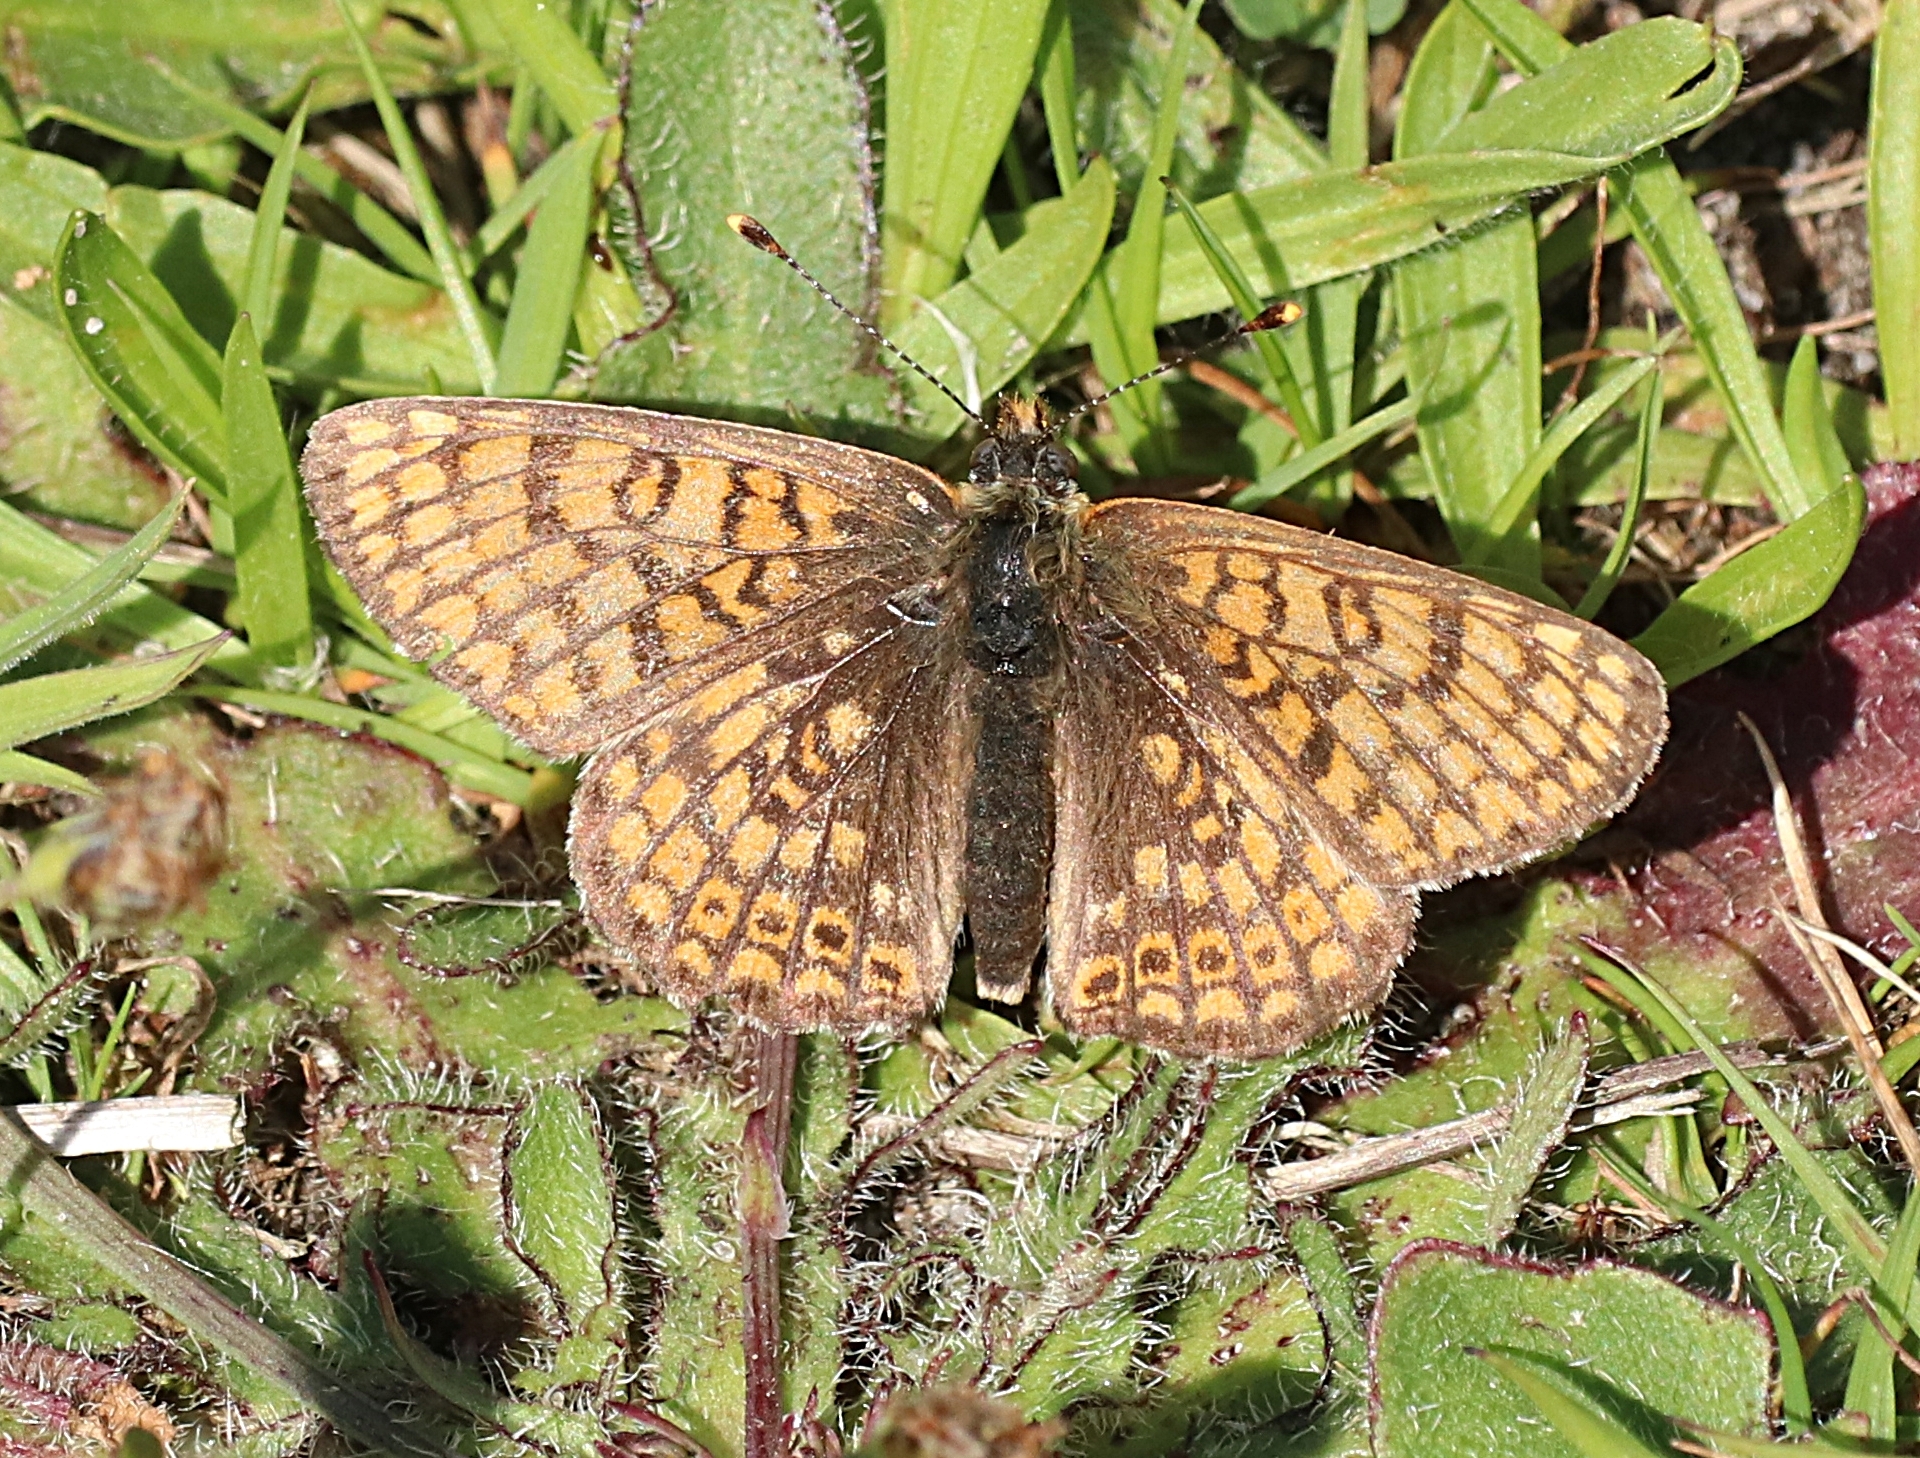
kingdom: Animalia
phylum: Arthropoda
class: Insecta
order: Lepidoptera
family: Nymphalidae
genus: Melitaea
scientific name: Melitaea cinxia
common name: Glanville fritillary
